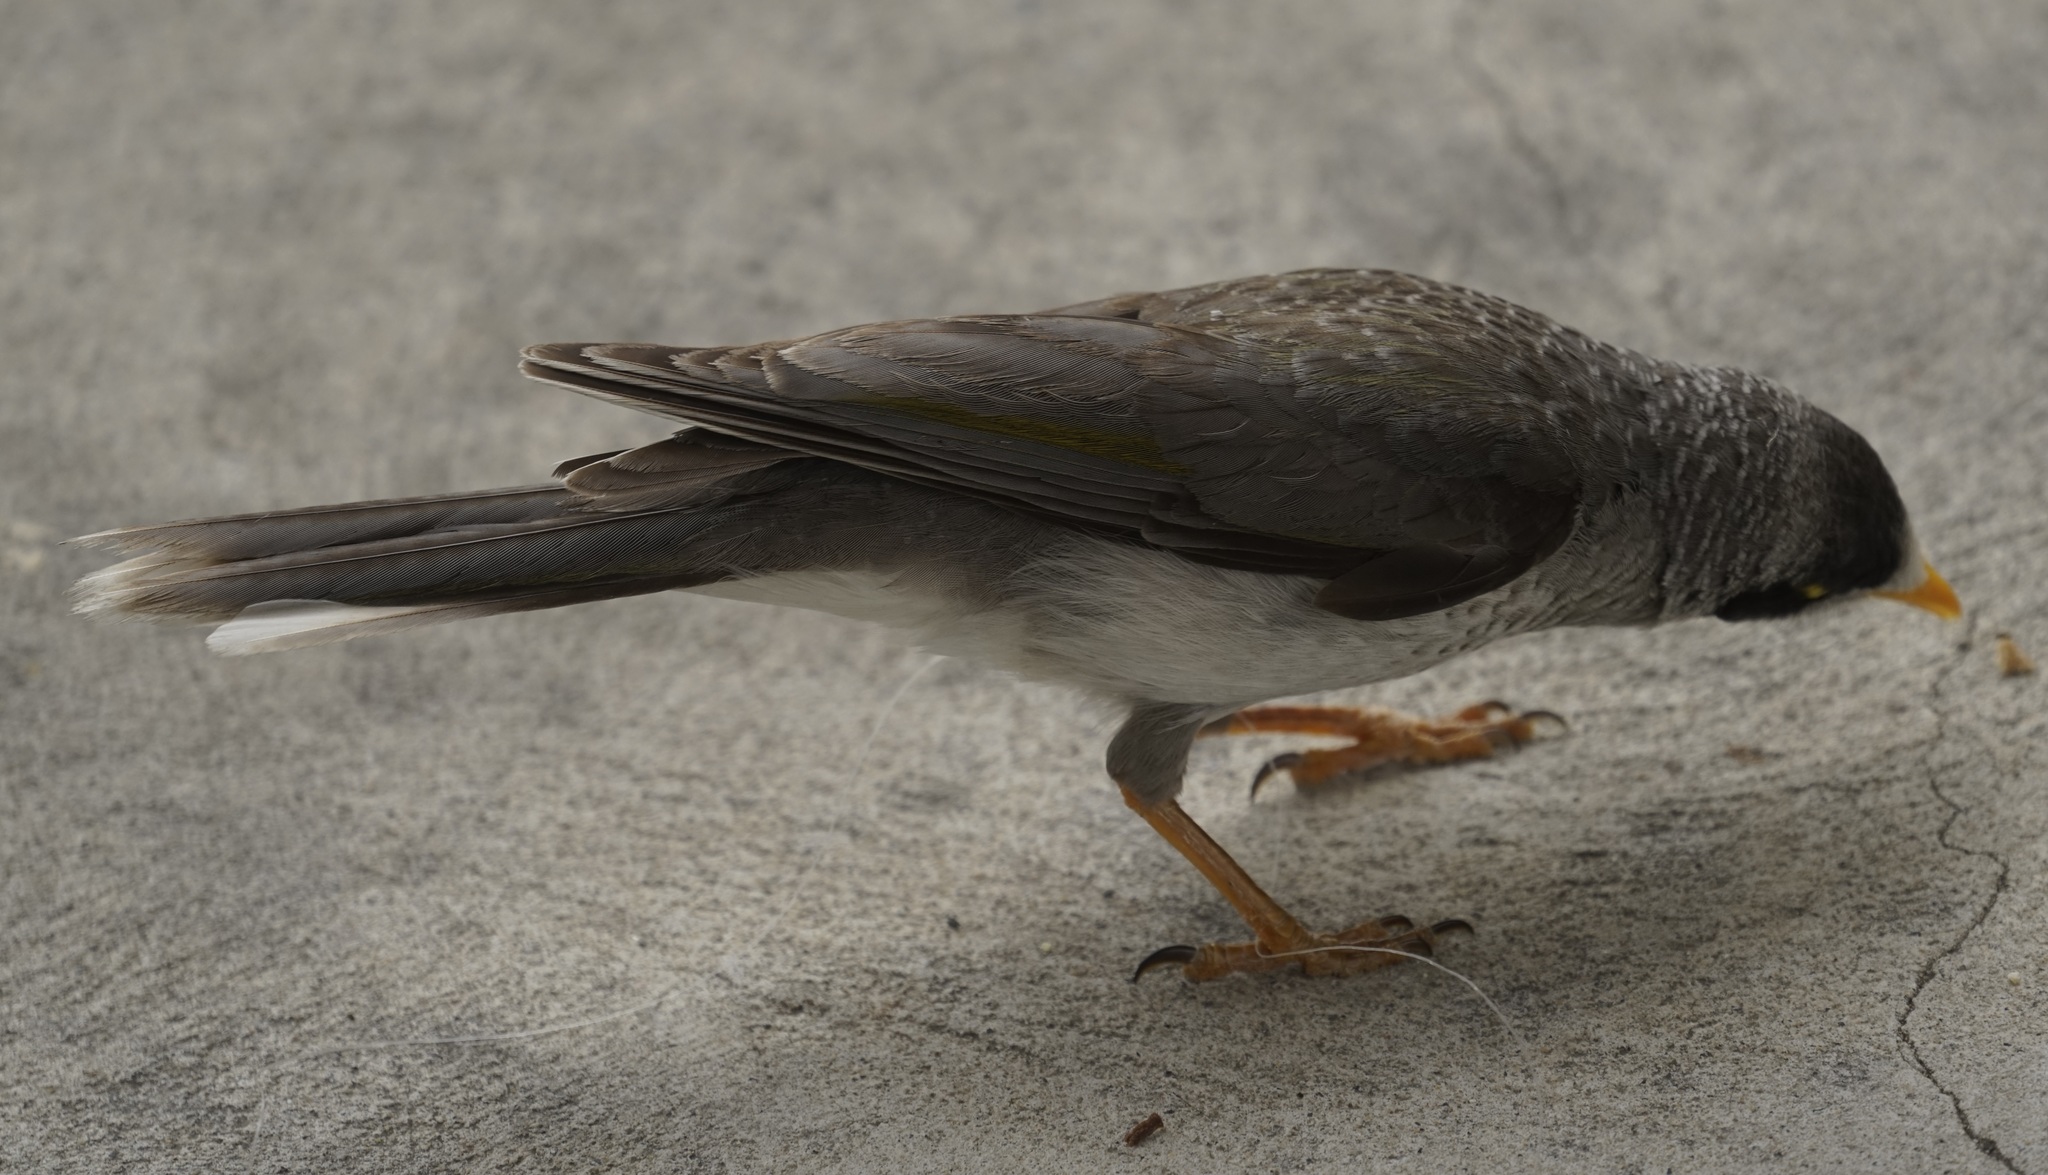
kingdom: Animalia
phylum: Chordata
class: Aves
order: Passeriformes
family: Meliphagidae
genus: Manorina
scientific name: Manorina melanocephala
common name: Noisy miner
